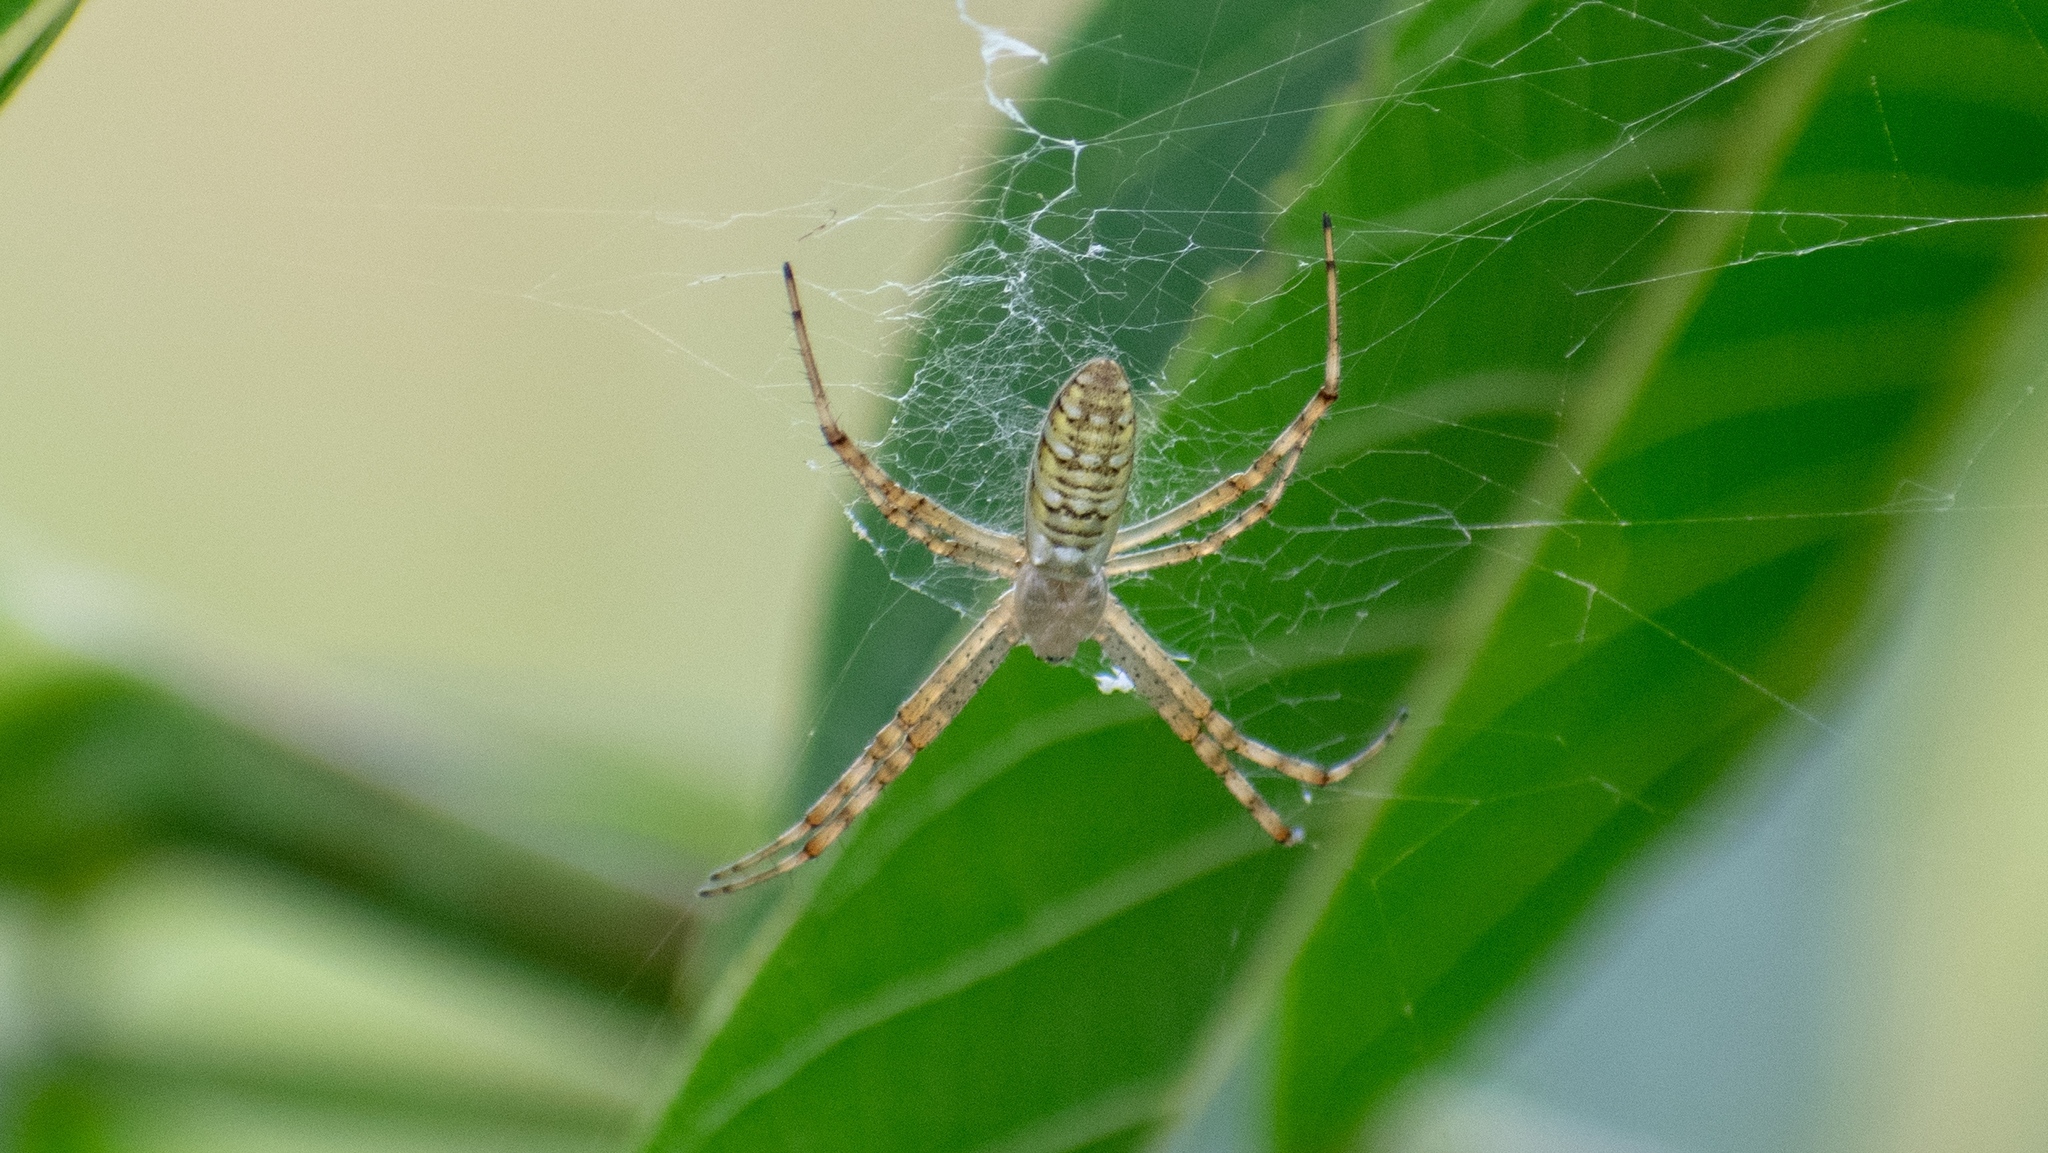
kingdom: Animalia
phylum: Arthropoda
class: Arachnida
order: Araneae
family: Araneidae
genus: Argiope
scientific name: Argiope bruennichi
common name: Wasp spider
